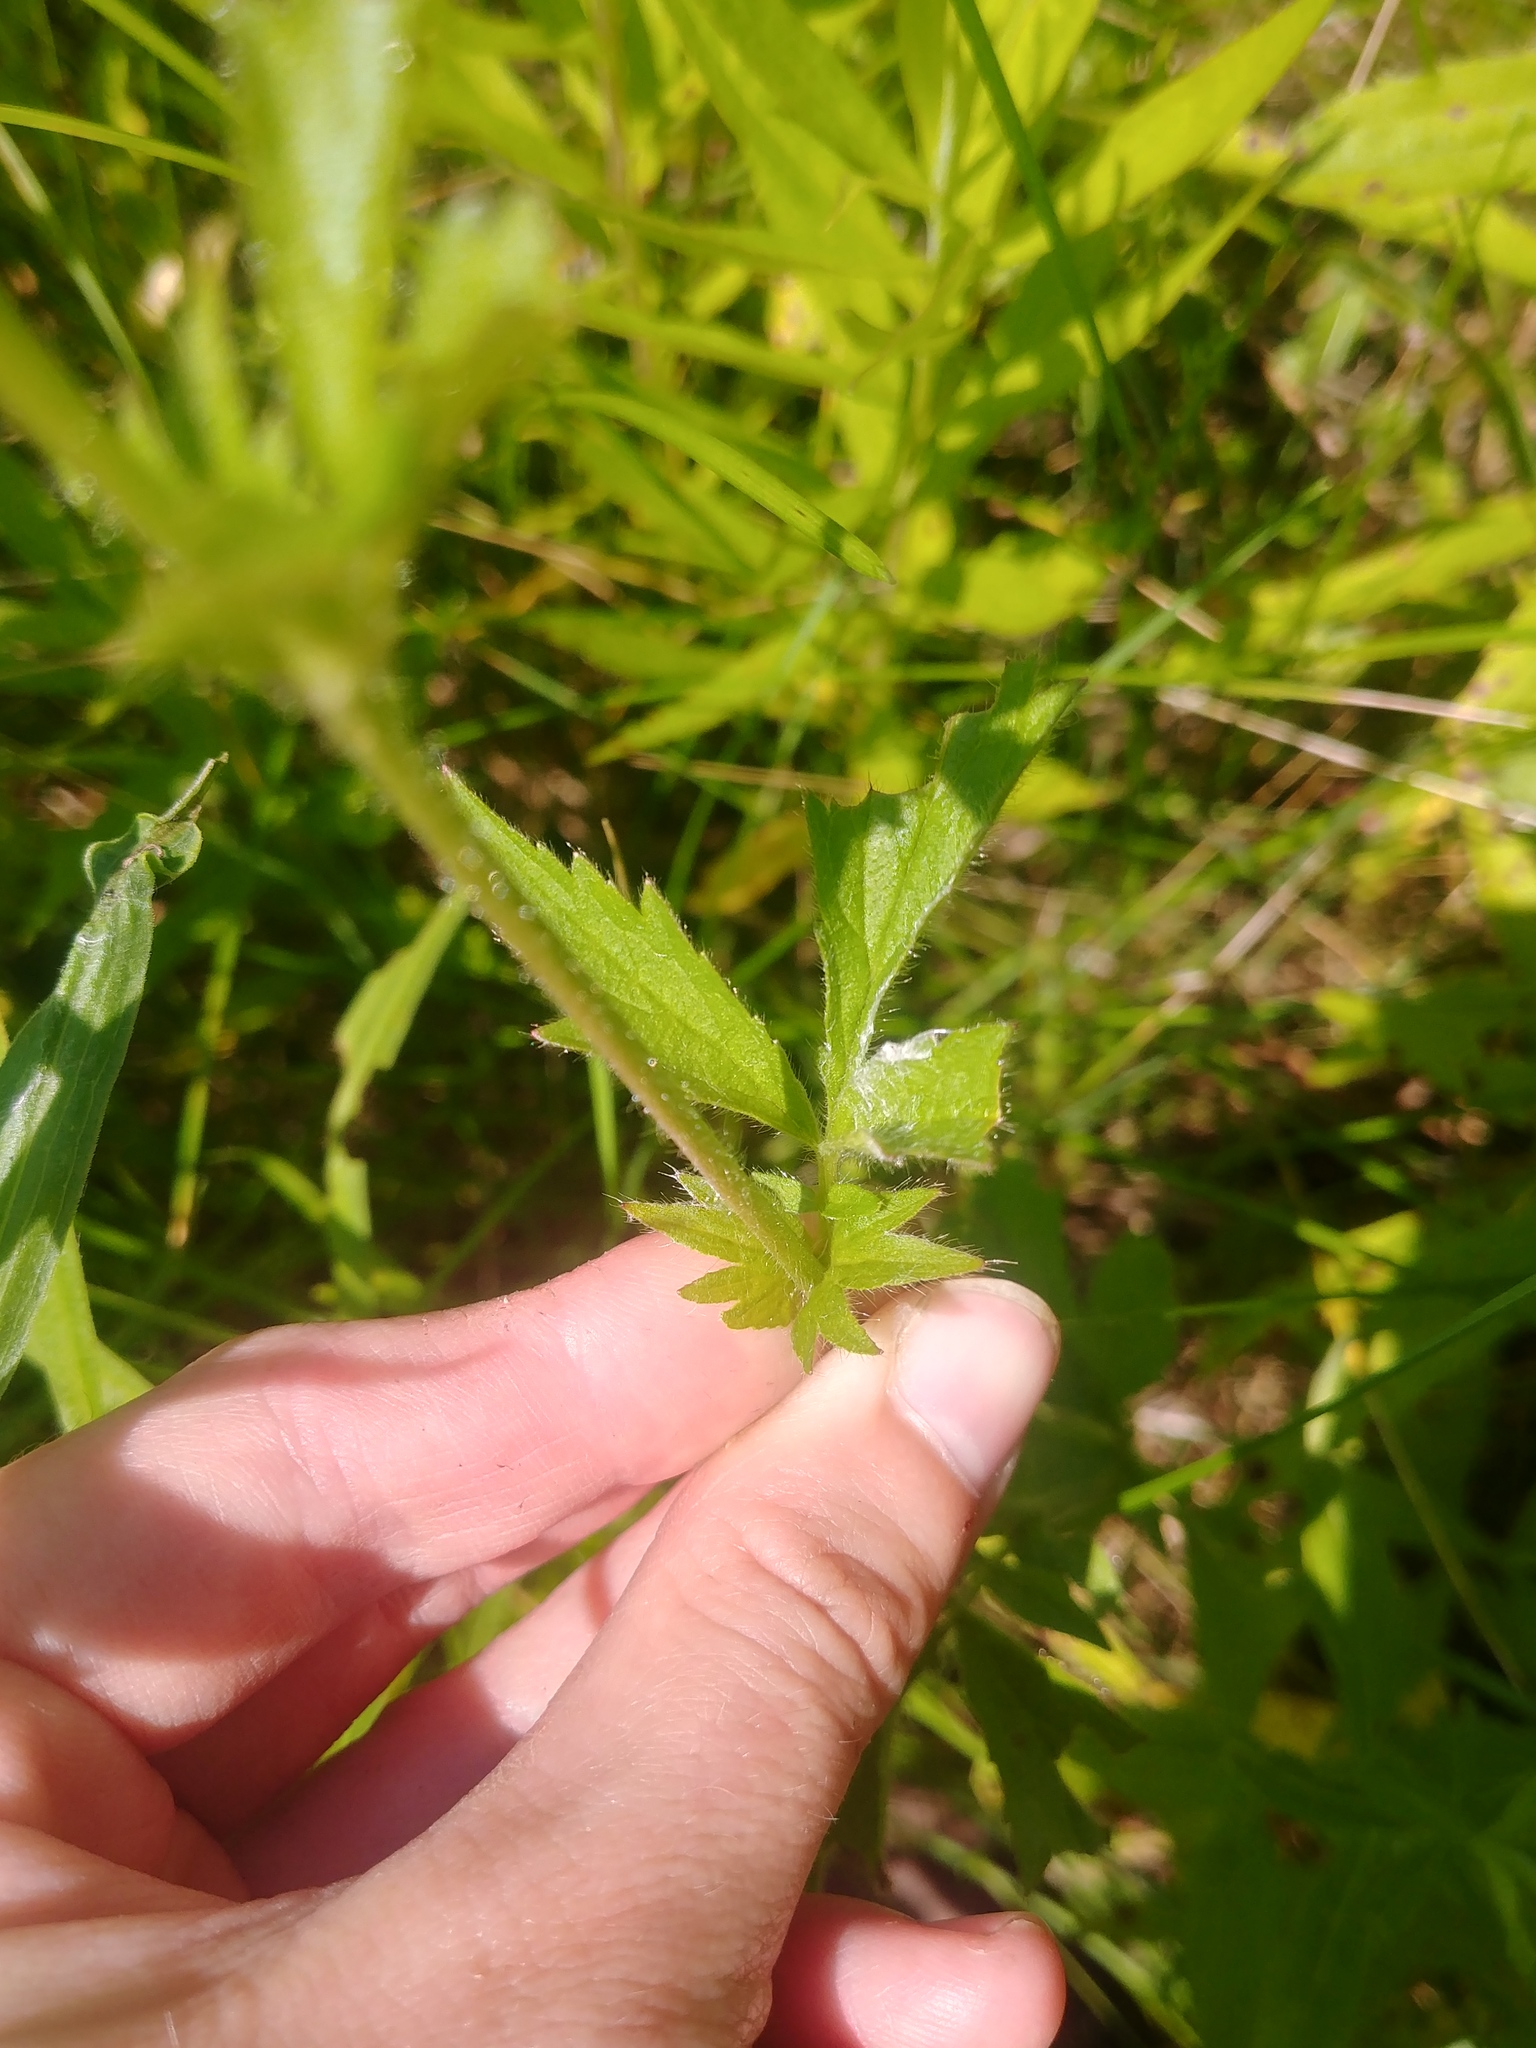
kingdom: Plantae
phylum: Tracheophyta
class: Magnoliopsida
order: Rosales
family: Rosaceae
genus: Geum
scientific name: Geum aleppicum
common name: Yellow avens
